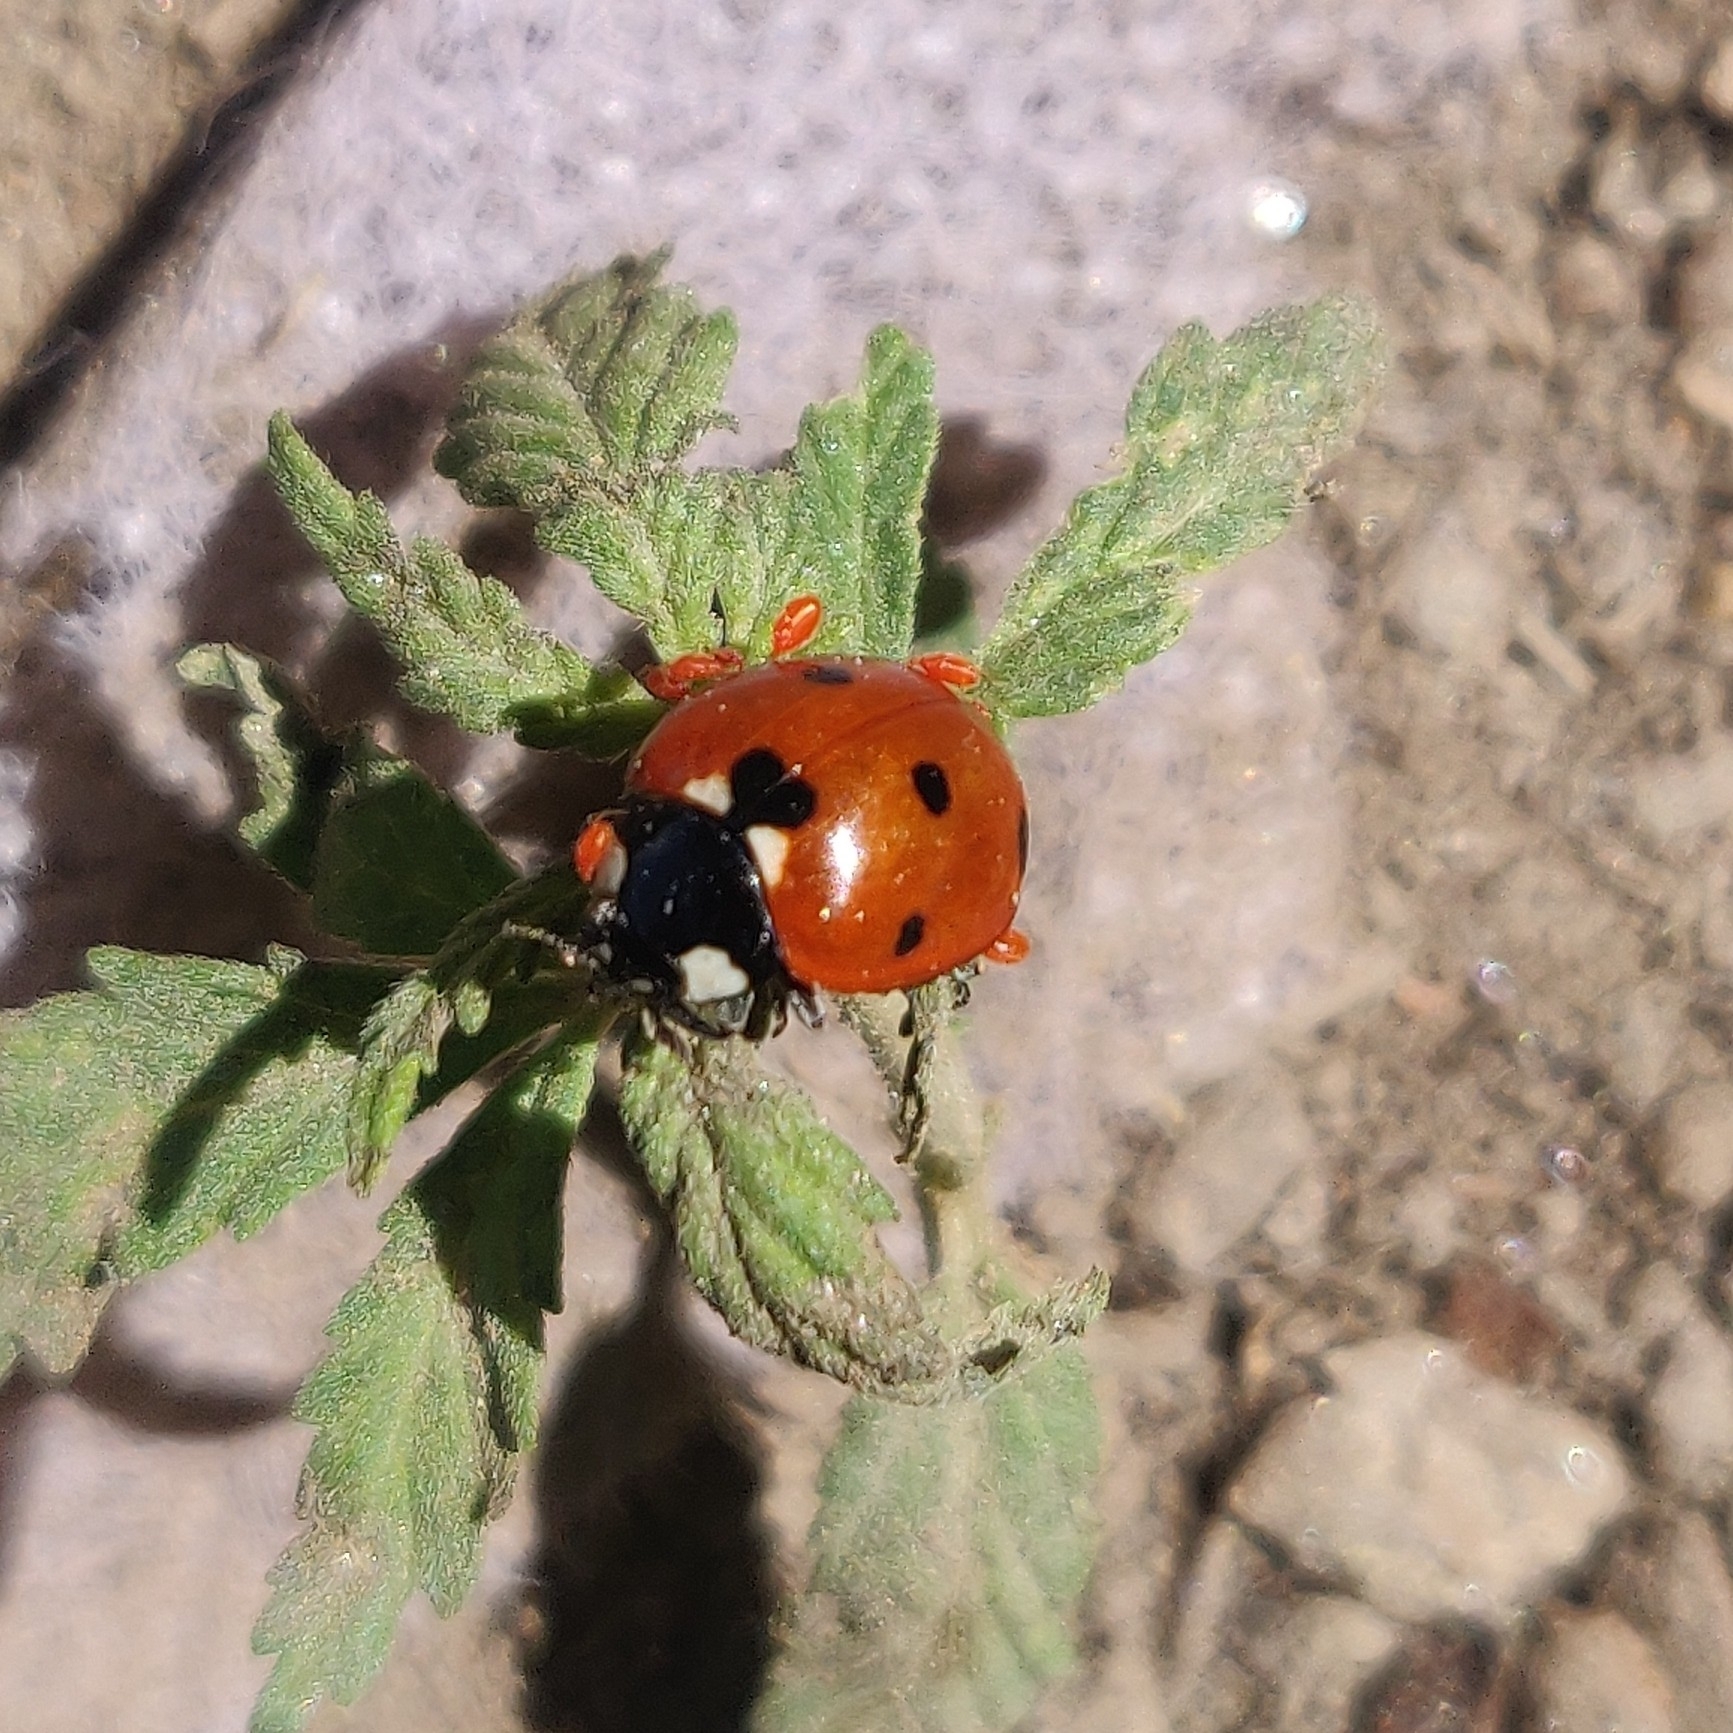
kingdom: Animalia
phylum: Arthropoda
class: Insecta
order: Coleoptera
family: Coccinellidae
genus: Coccinella
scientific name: Coccinella septempunctata
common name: Sevenspotted lady beetle
